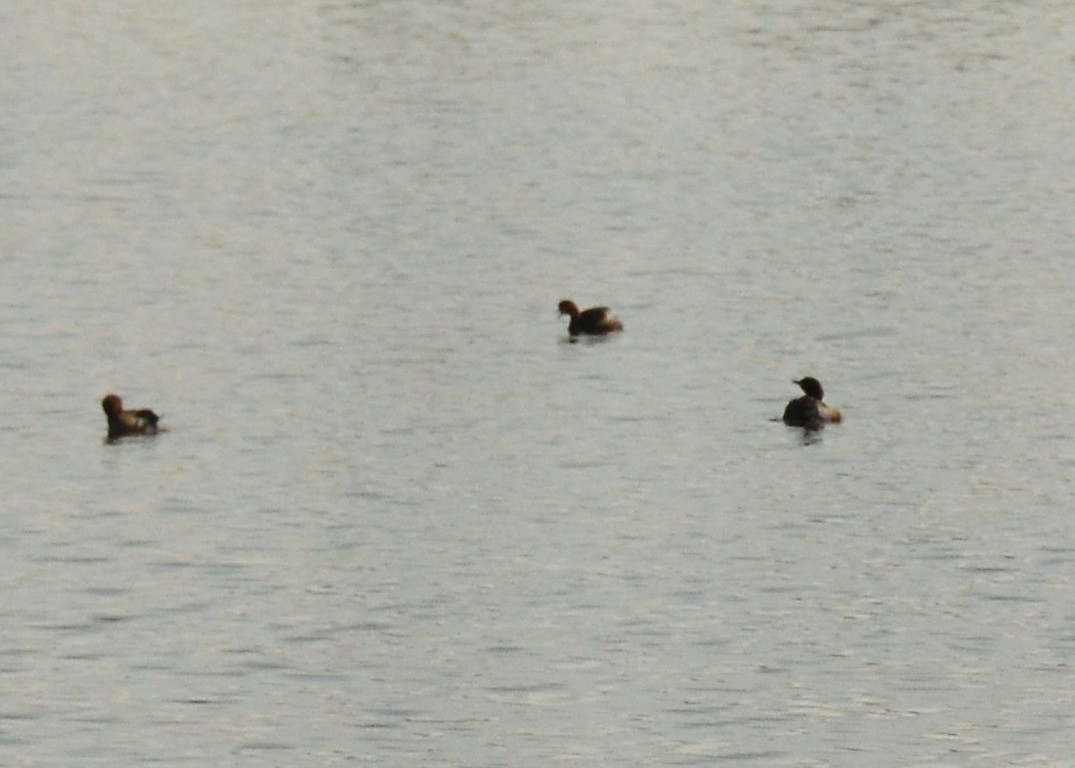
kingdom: Animalia
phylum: Chordata
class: Aves
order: Podicipediformes
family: Podicipedidae
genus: Tachybaptus
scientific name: Tachybaptus ruficollis
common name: Little grebe
